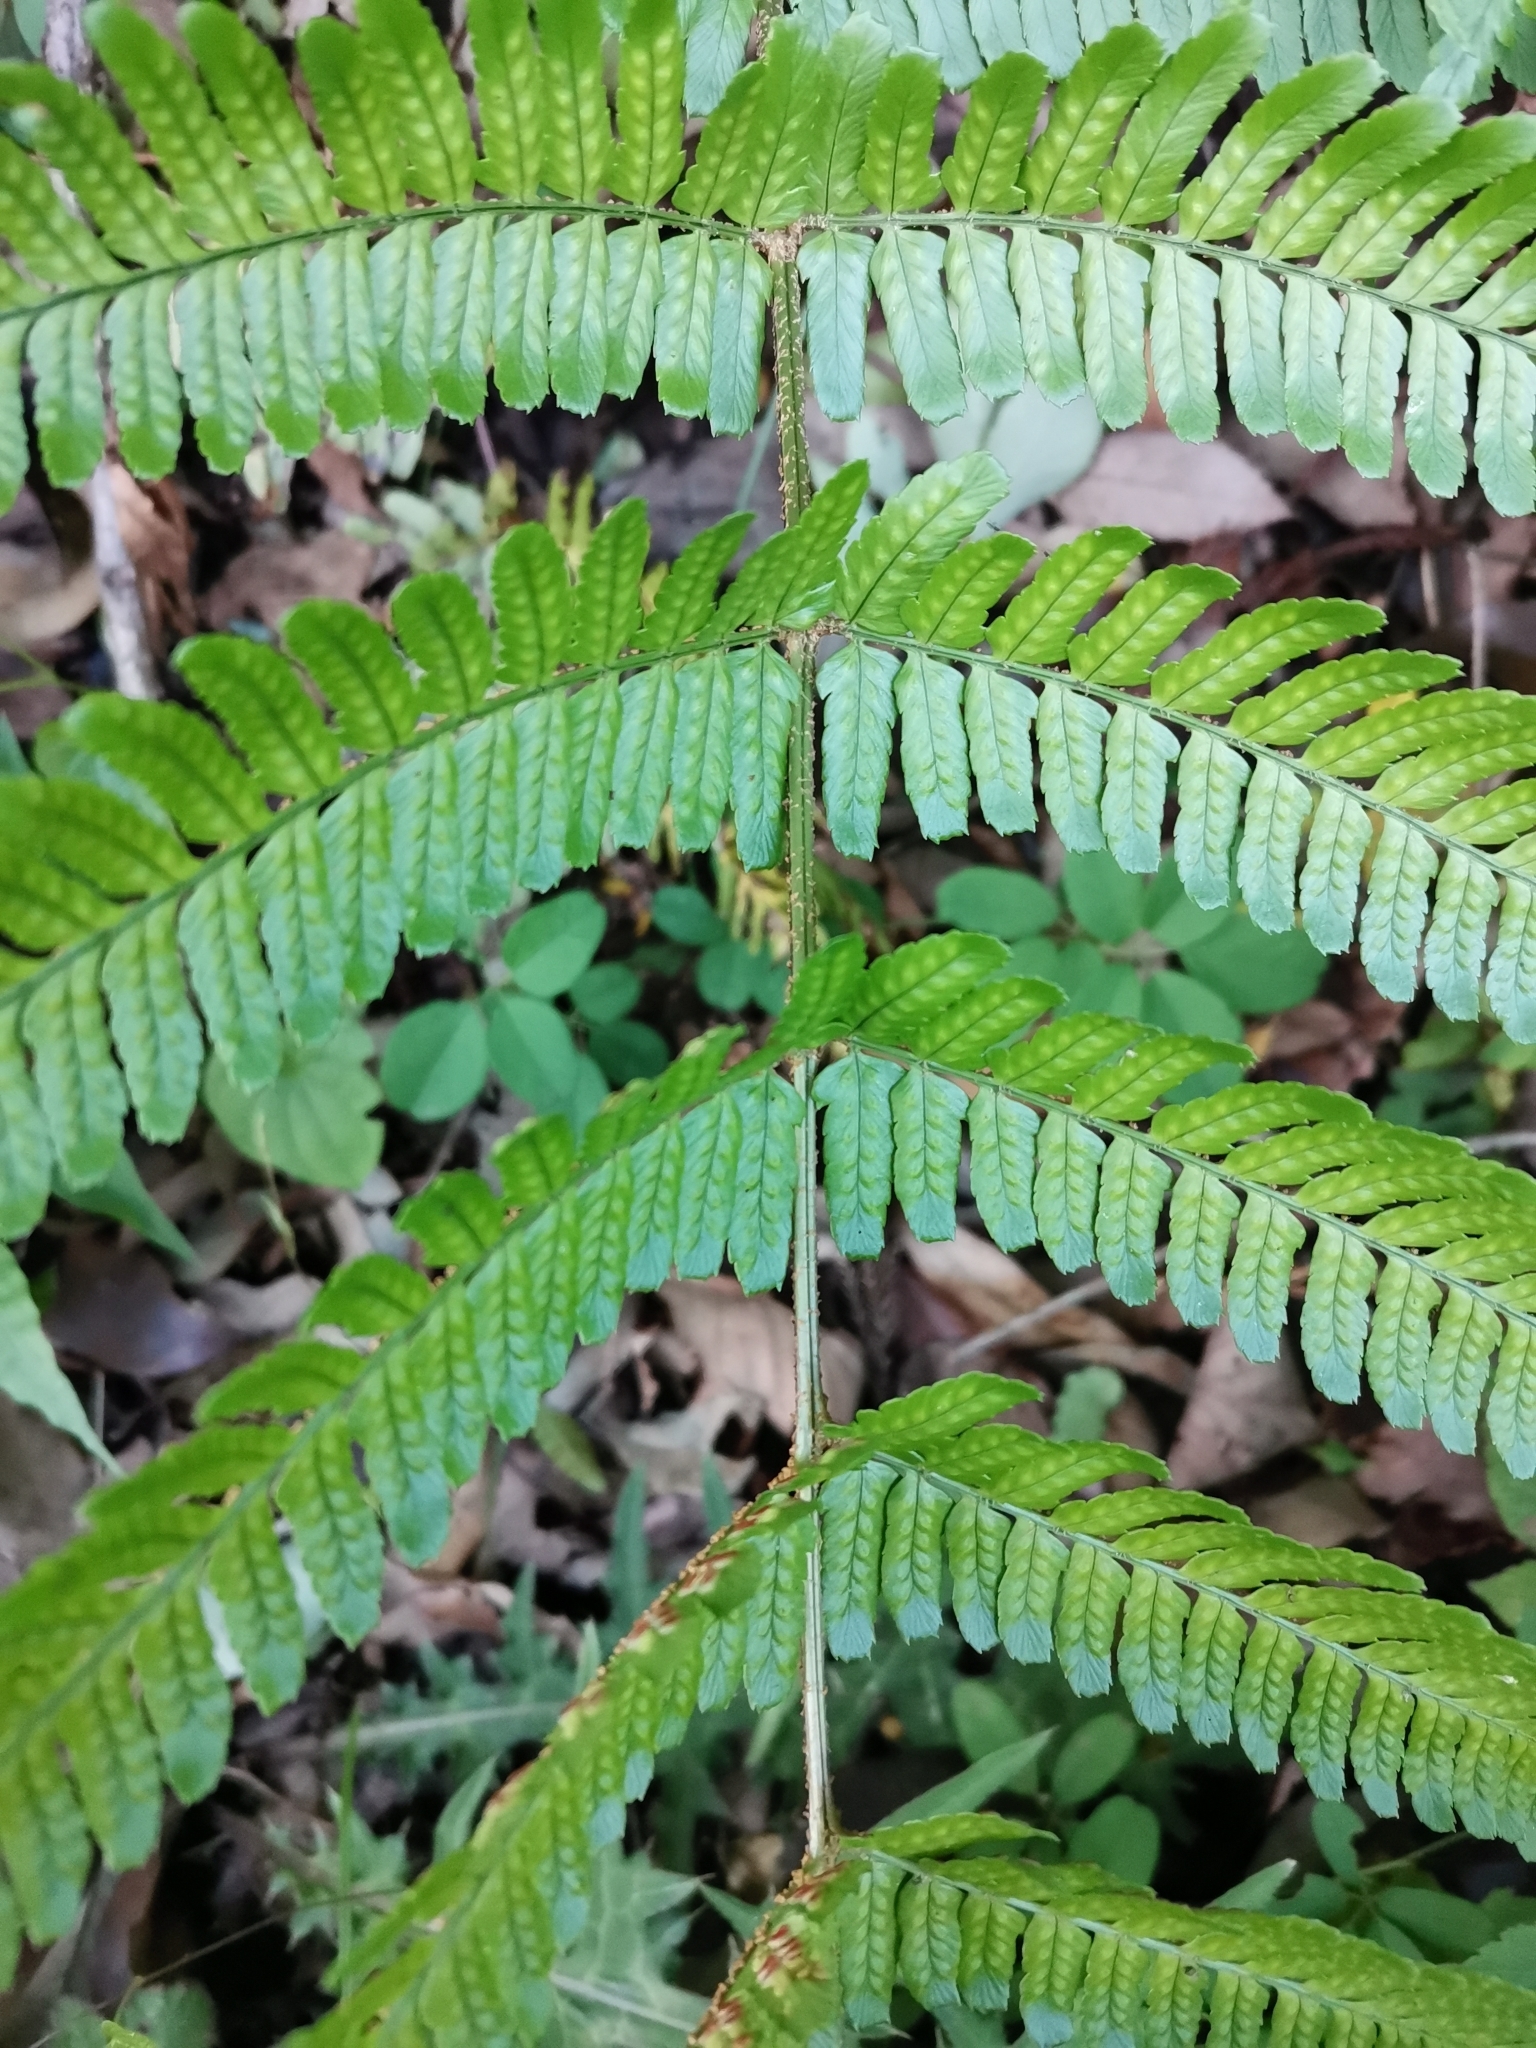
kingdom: Plantae
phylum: Tracheophyta
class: Polypodiopsida
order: Polypodiales
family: Dryopteridaceae
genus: Dryopteris
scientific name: Dryopteris erythrosora
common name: Autumn fern
